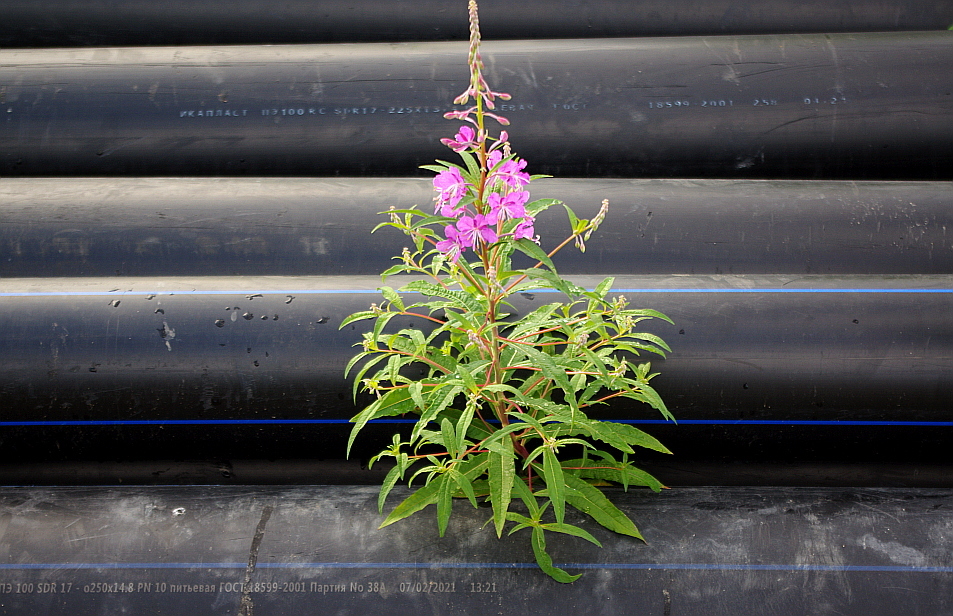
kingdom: Plantae
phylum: Tracheophyta
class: Magnoliopsida
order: Myrtales
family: Onagraceae
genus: Chamaenerion
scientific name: Chamaenerion angustifolium
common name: Fireweed
